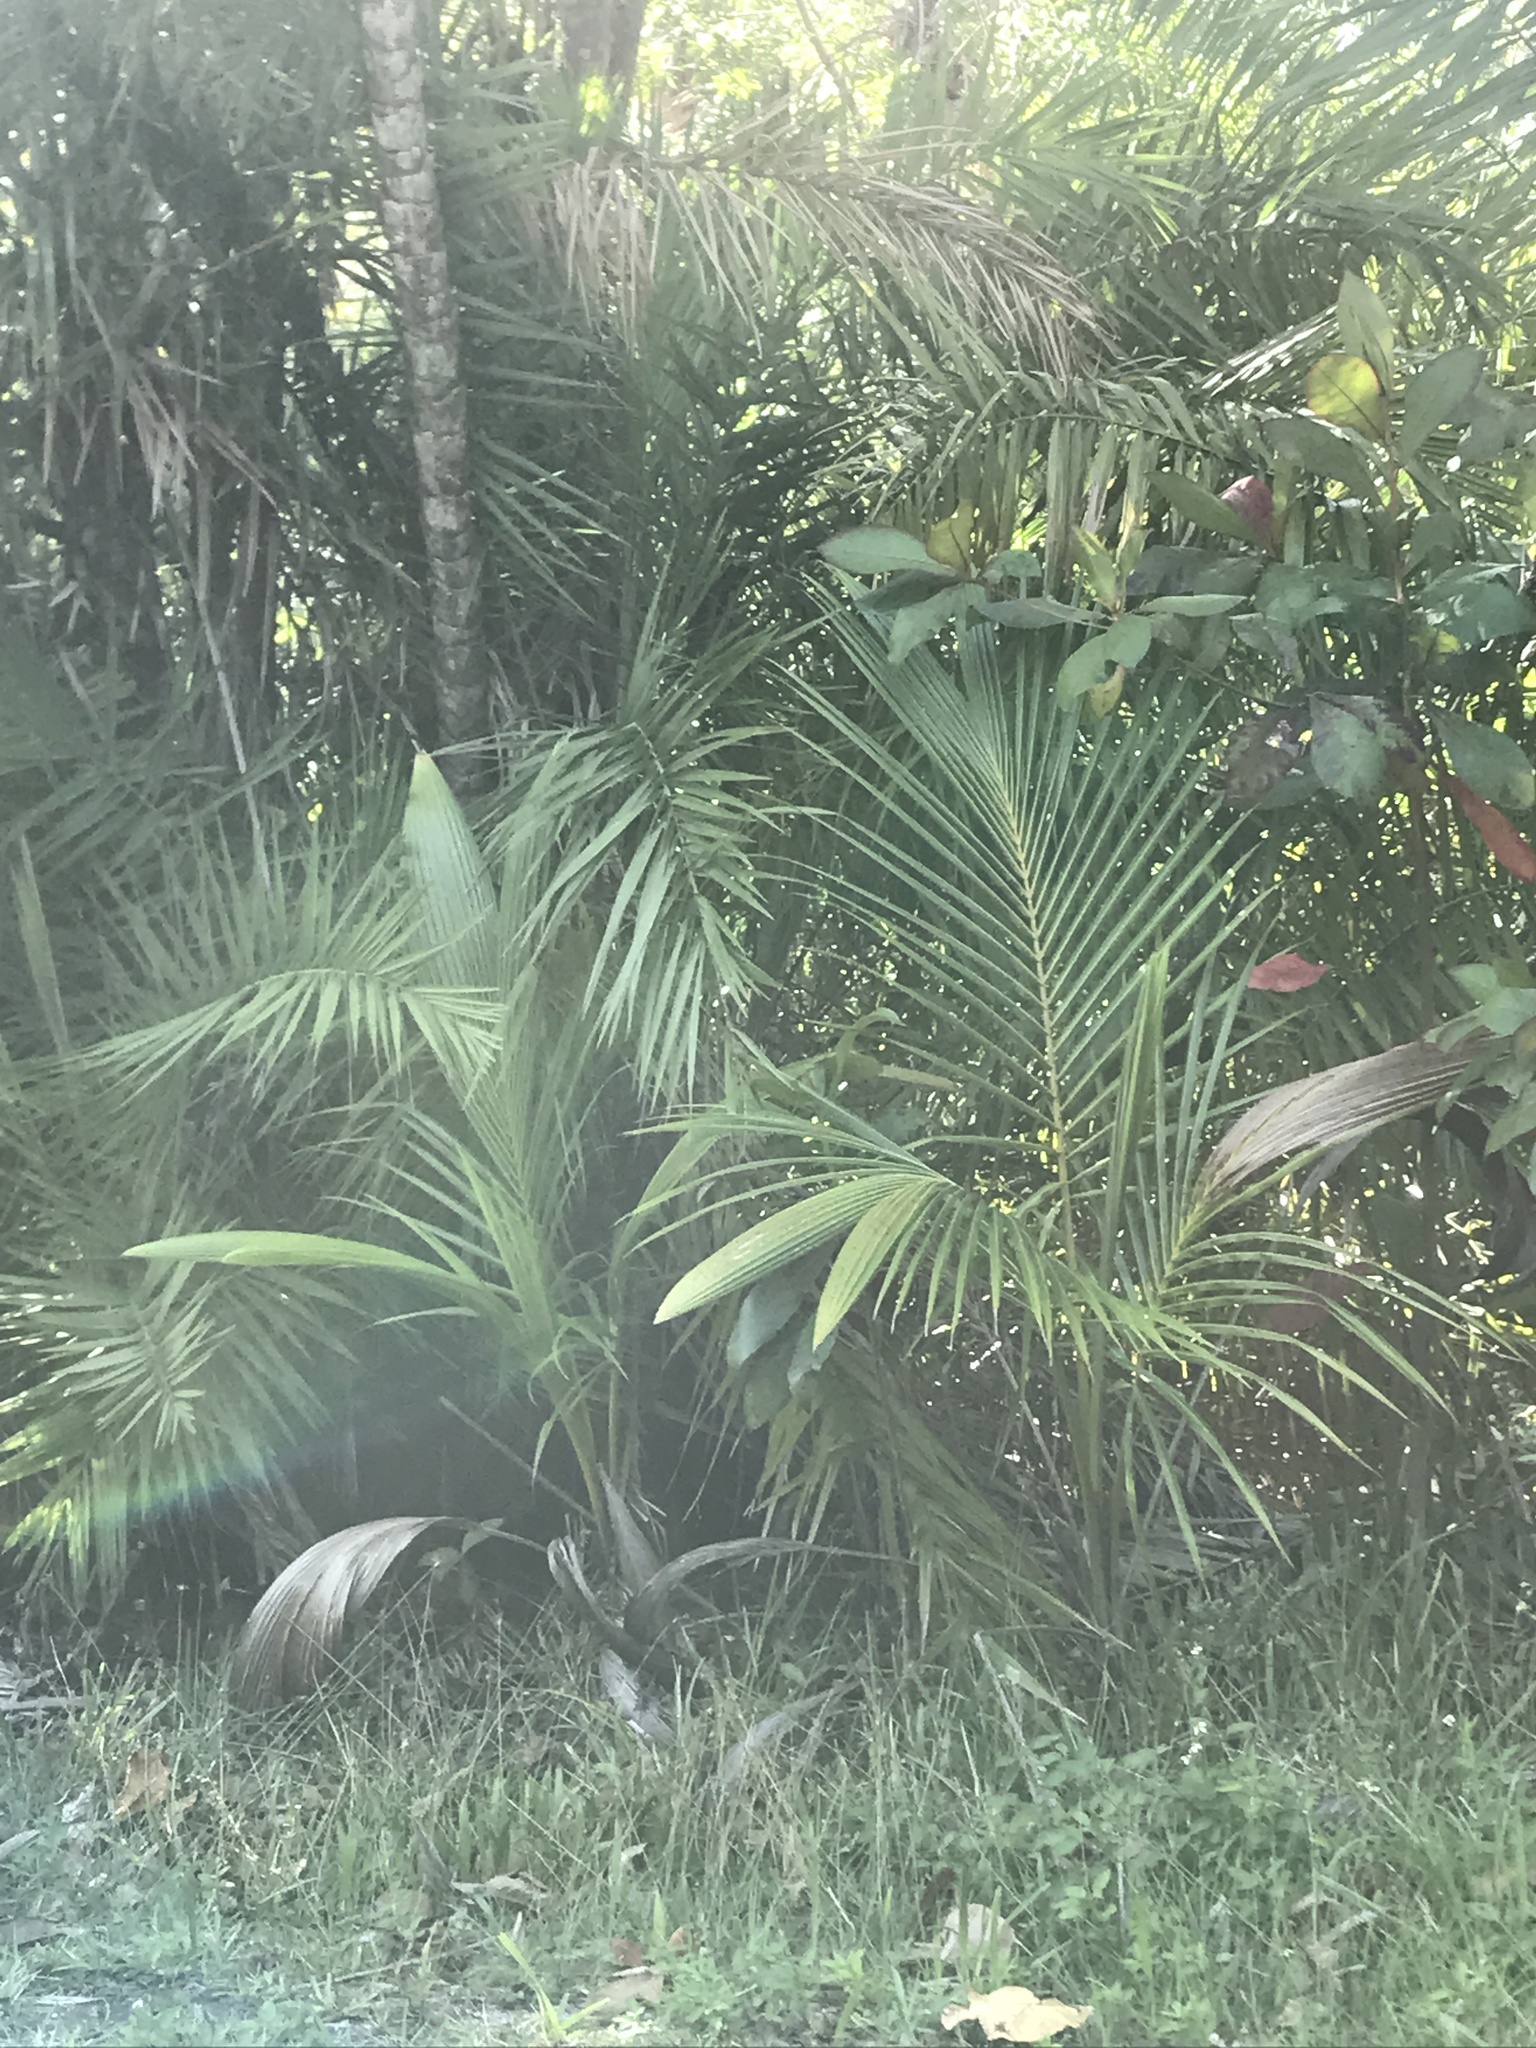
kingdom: Plantae
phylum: Tracheophyta
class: Liliopsida
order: Arecales
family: Arecaceae
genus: Cocos
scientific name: Cocos nucifera
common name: Coconut palm
